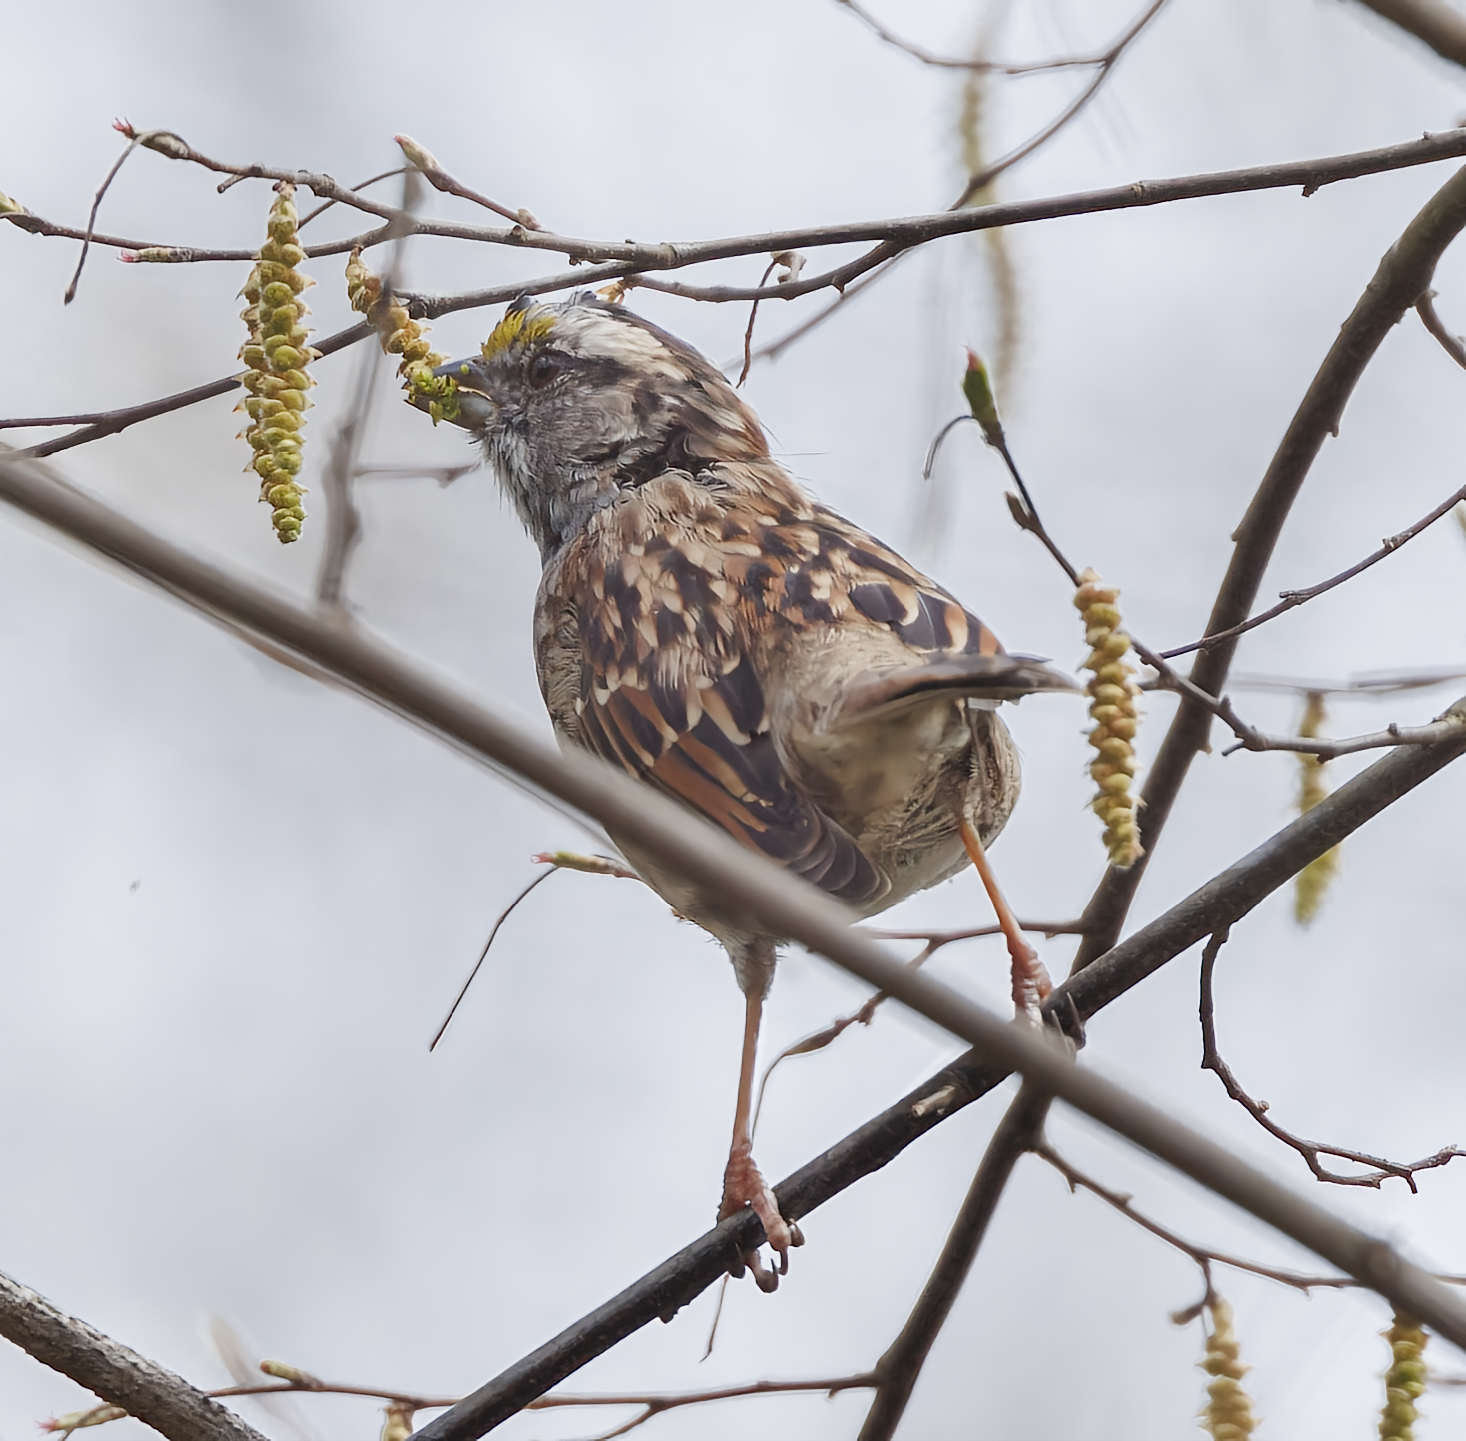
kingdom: Animalia
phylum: Chordata
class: Aves
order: Passeriformes
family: Passerellidae
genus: Zonotrichia
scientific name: Zonotrichia albicollis
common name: White-throated sparrow
